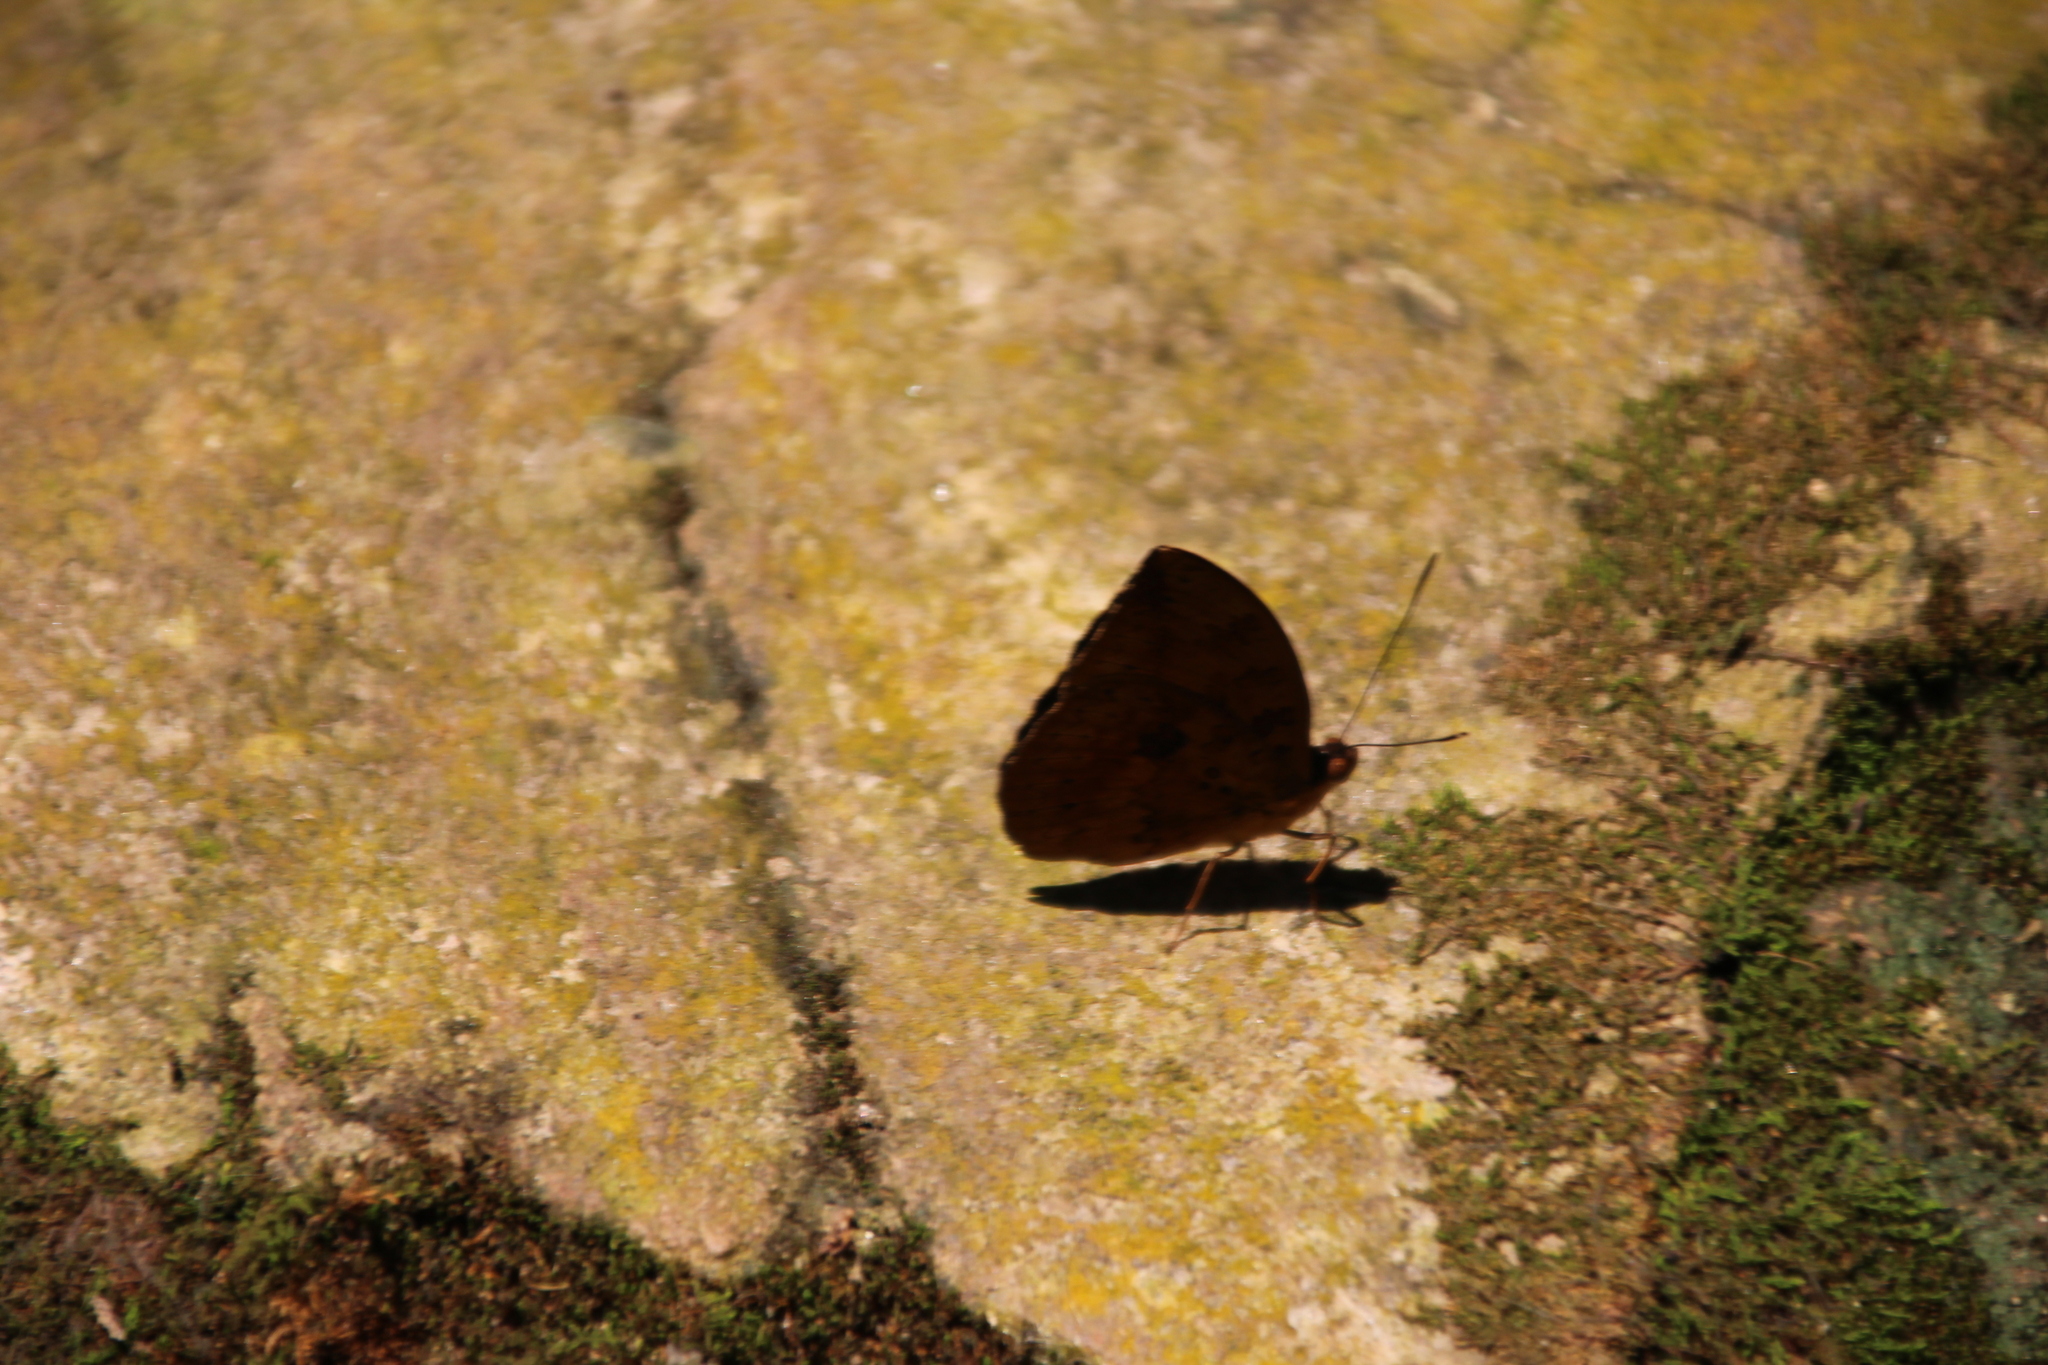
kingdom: Animalia
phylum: Arthropoda
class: Insecta
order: Lepidoptera
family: Nymphalidae
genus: Bebearia
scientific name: Bebearia carshena
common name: Shining blue forester
